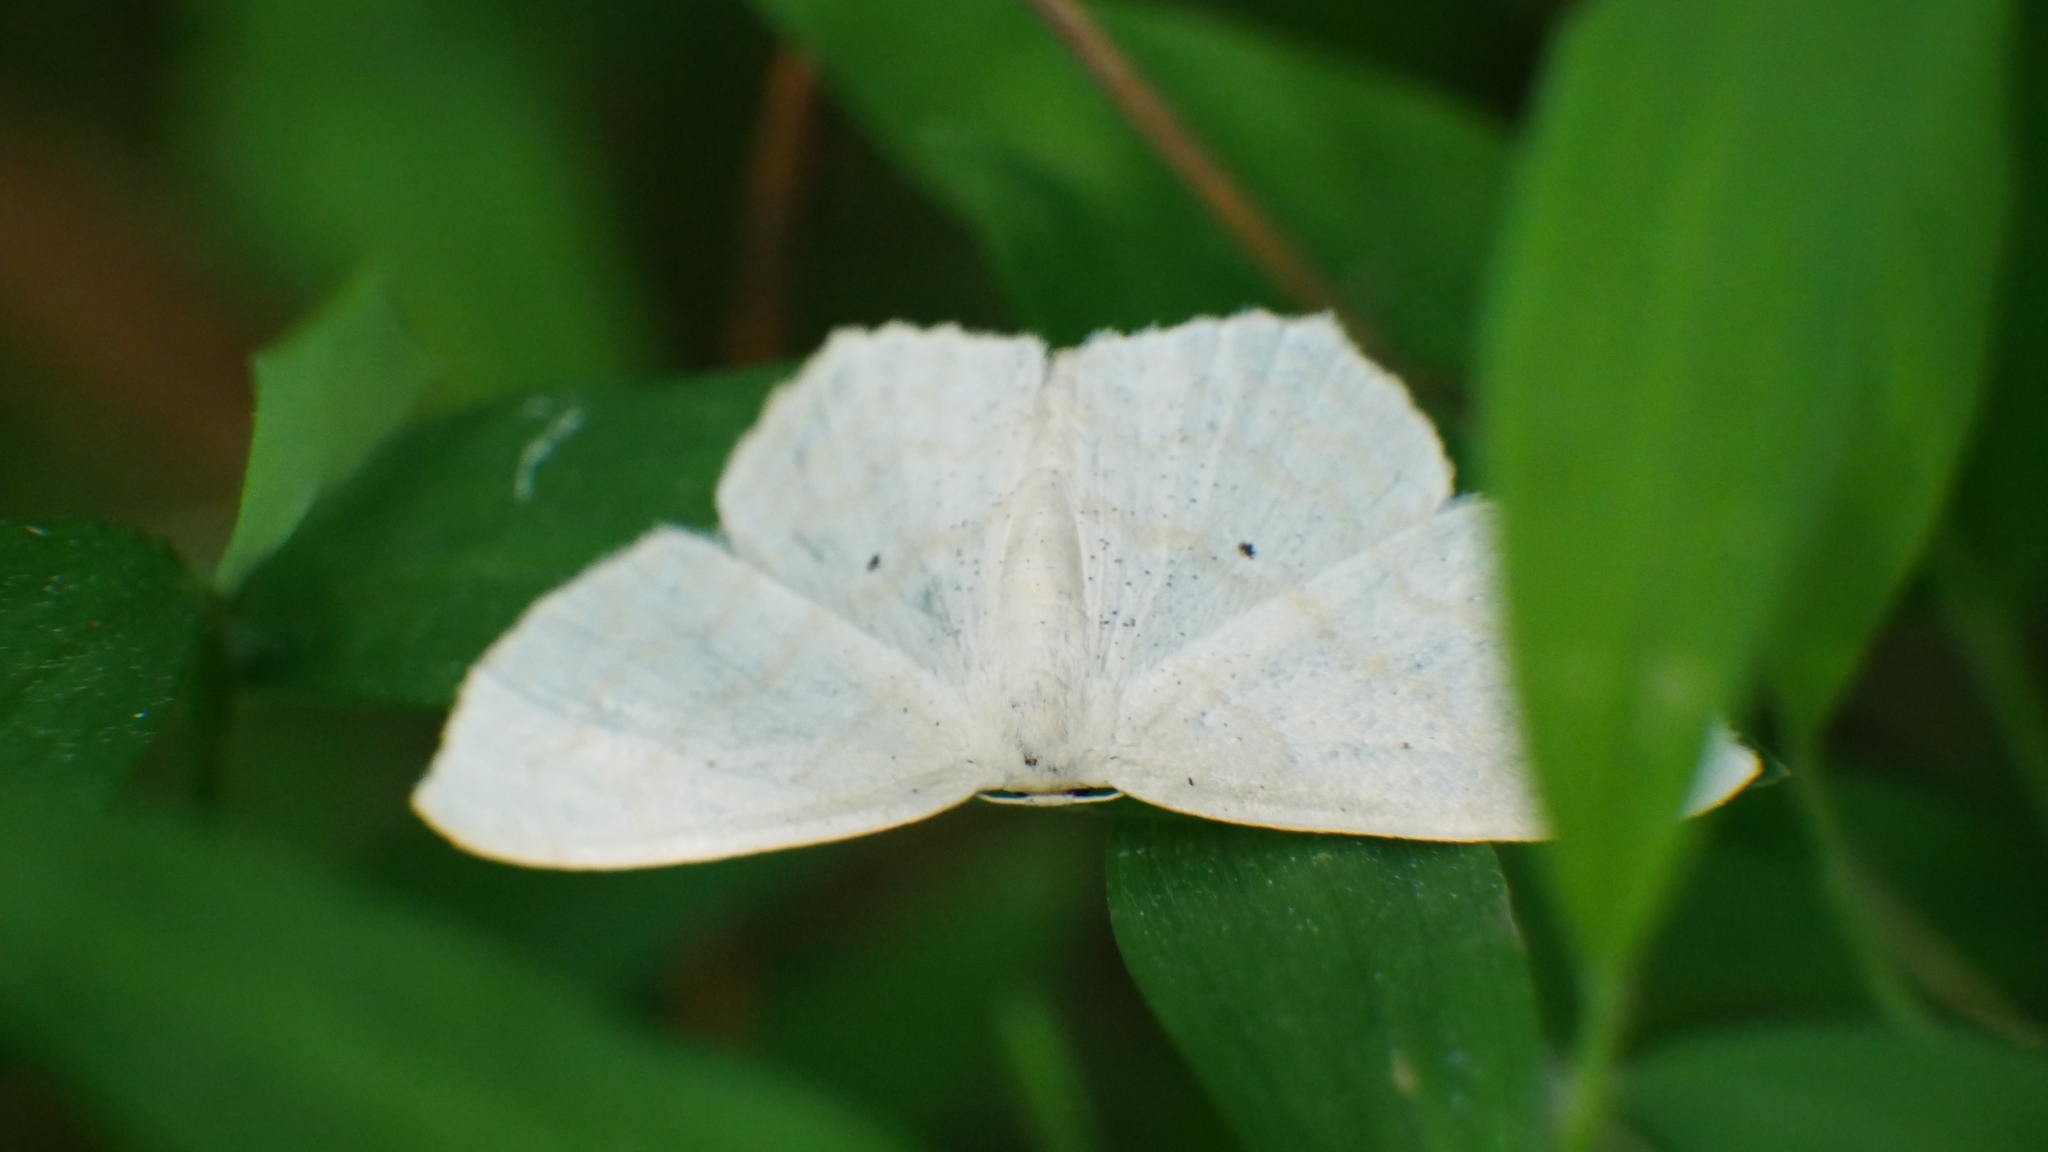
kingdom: Animalia
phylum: Arthropoda
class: Insecta
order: Lepidoptera
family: Geometridae
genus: Scopula
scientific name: Scopula limboundata
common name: Large lace border
